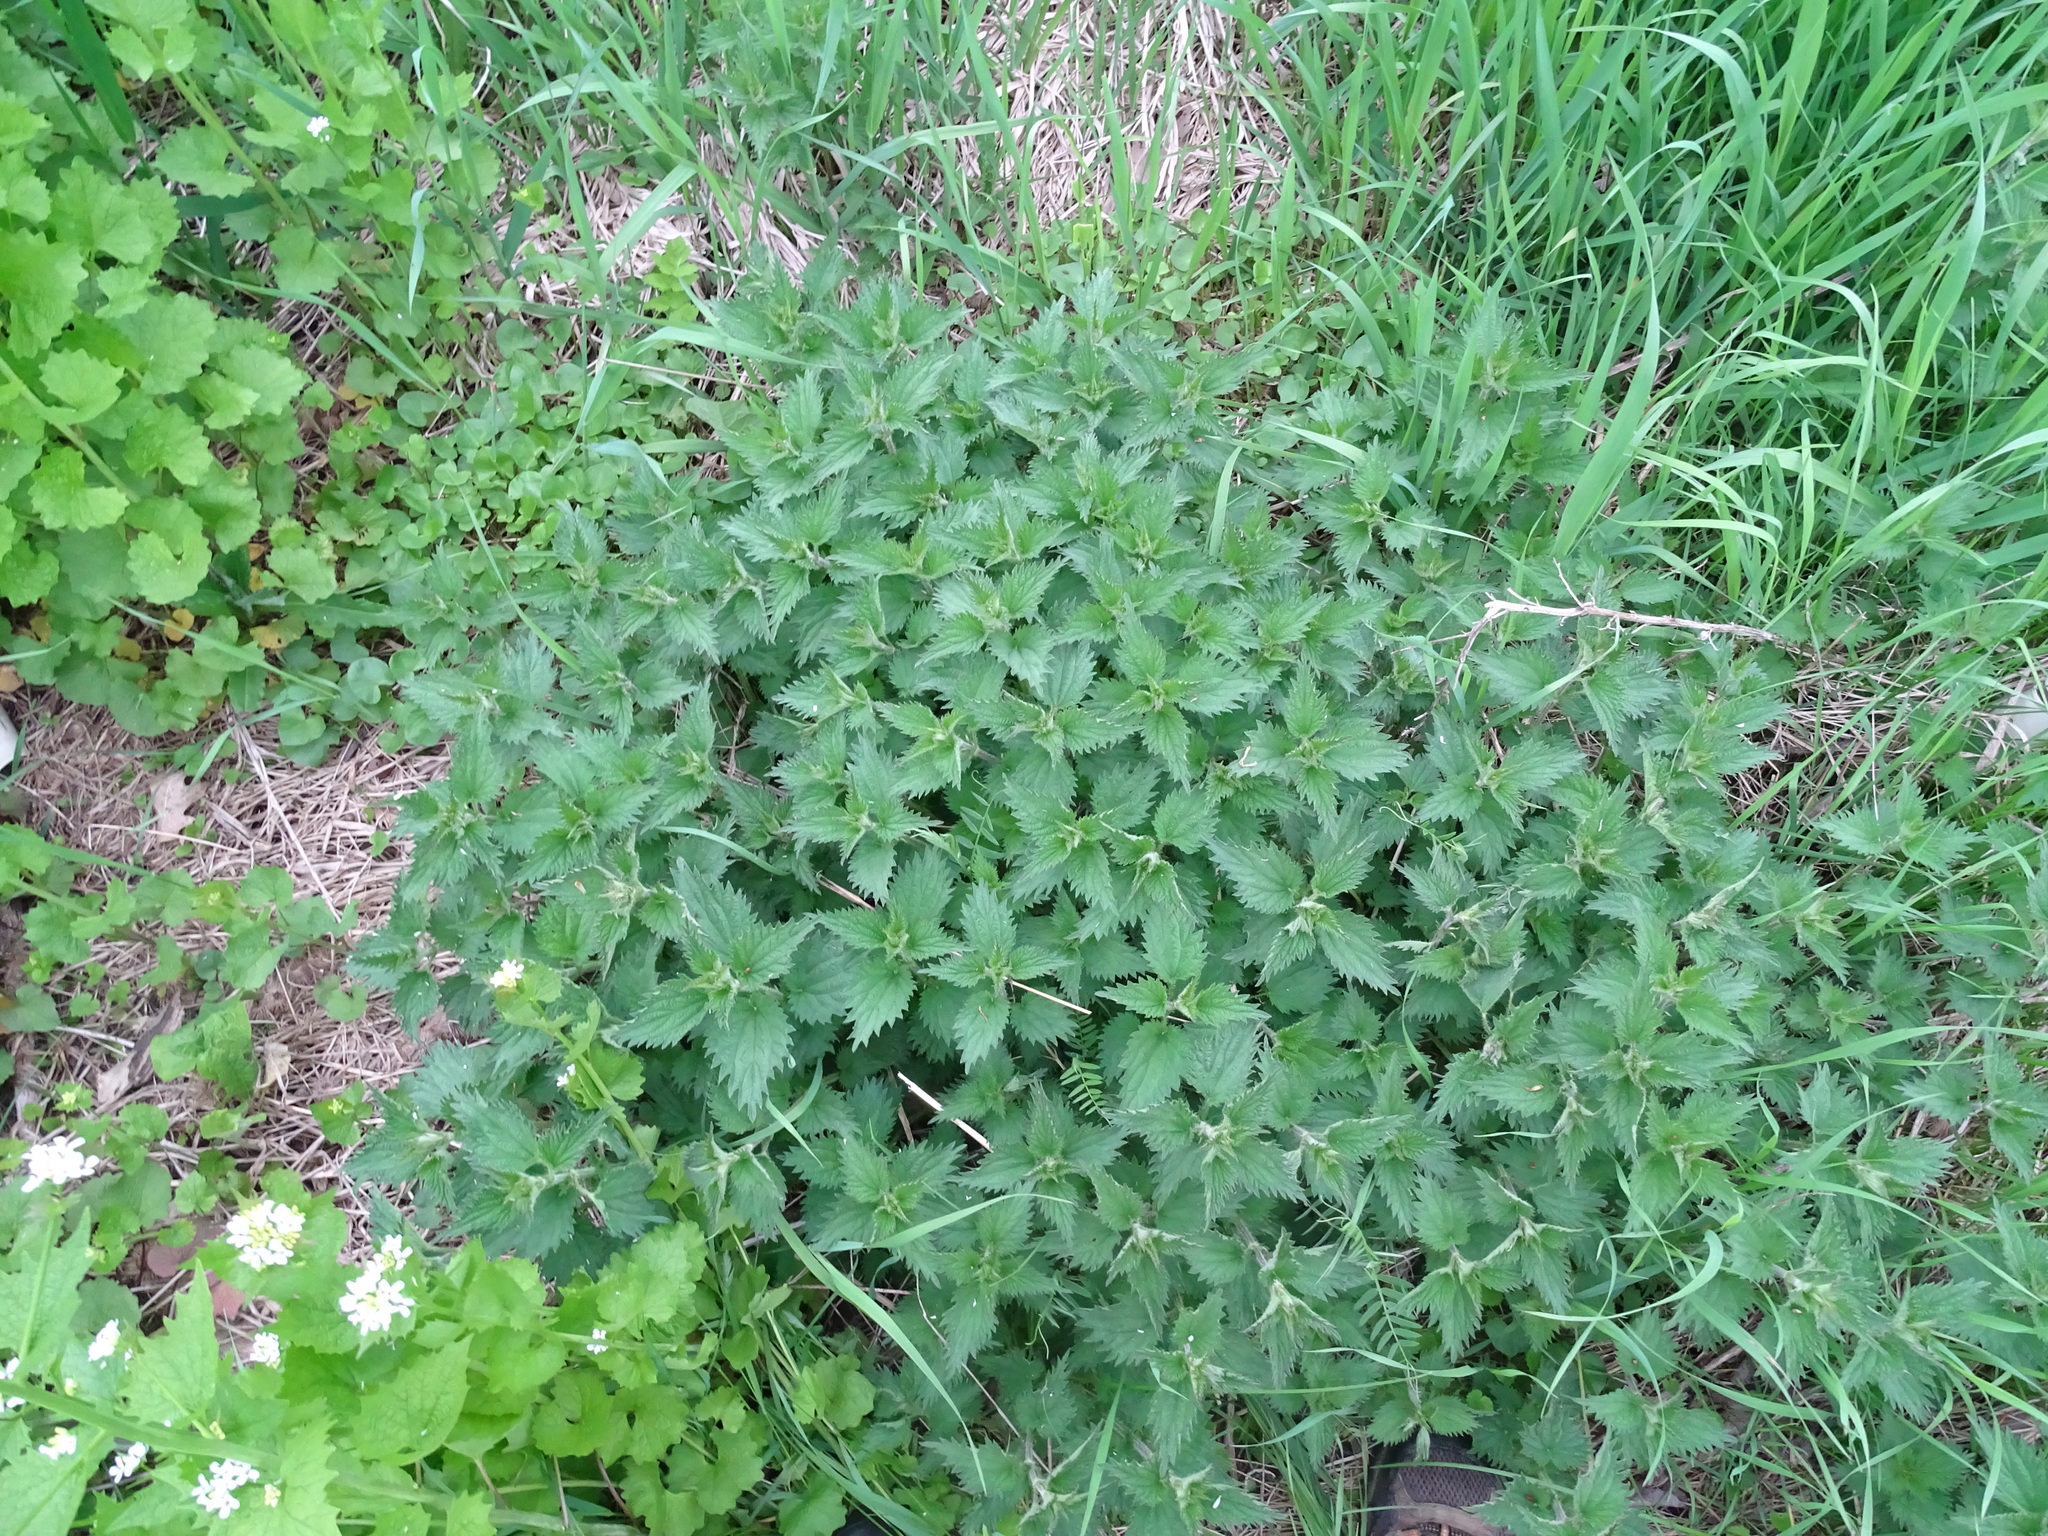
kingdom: Plantae
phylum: Tracheophyta
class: Magnoliopsida
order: Rosales
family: Urticaceae
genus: Urtica
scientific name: Urtica dioica
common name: Common nettle
